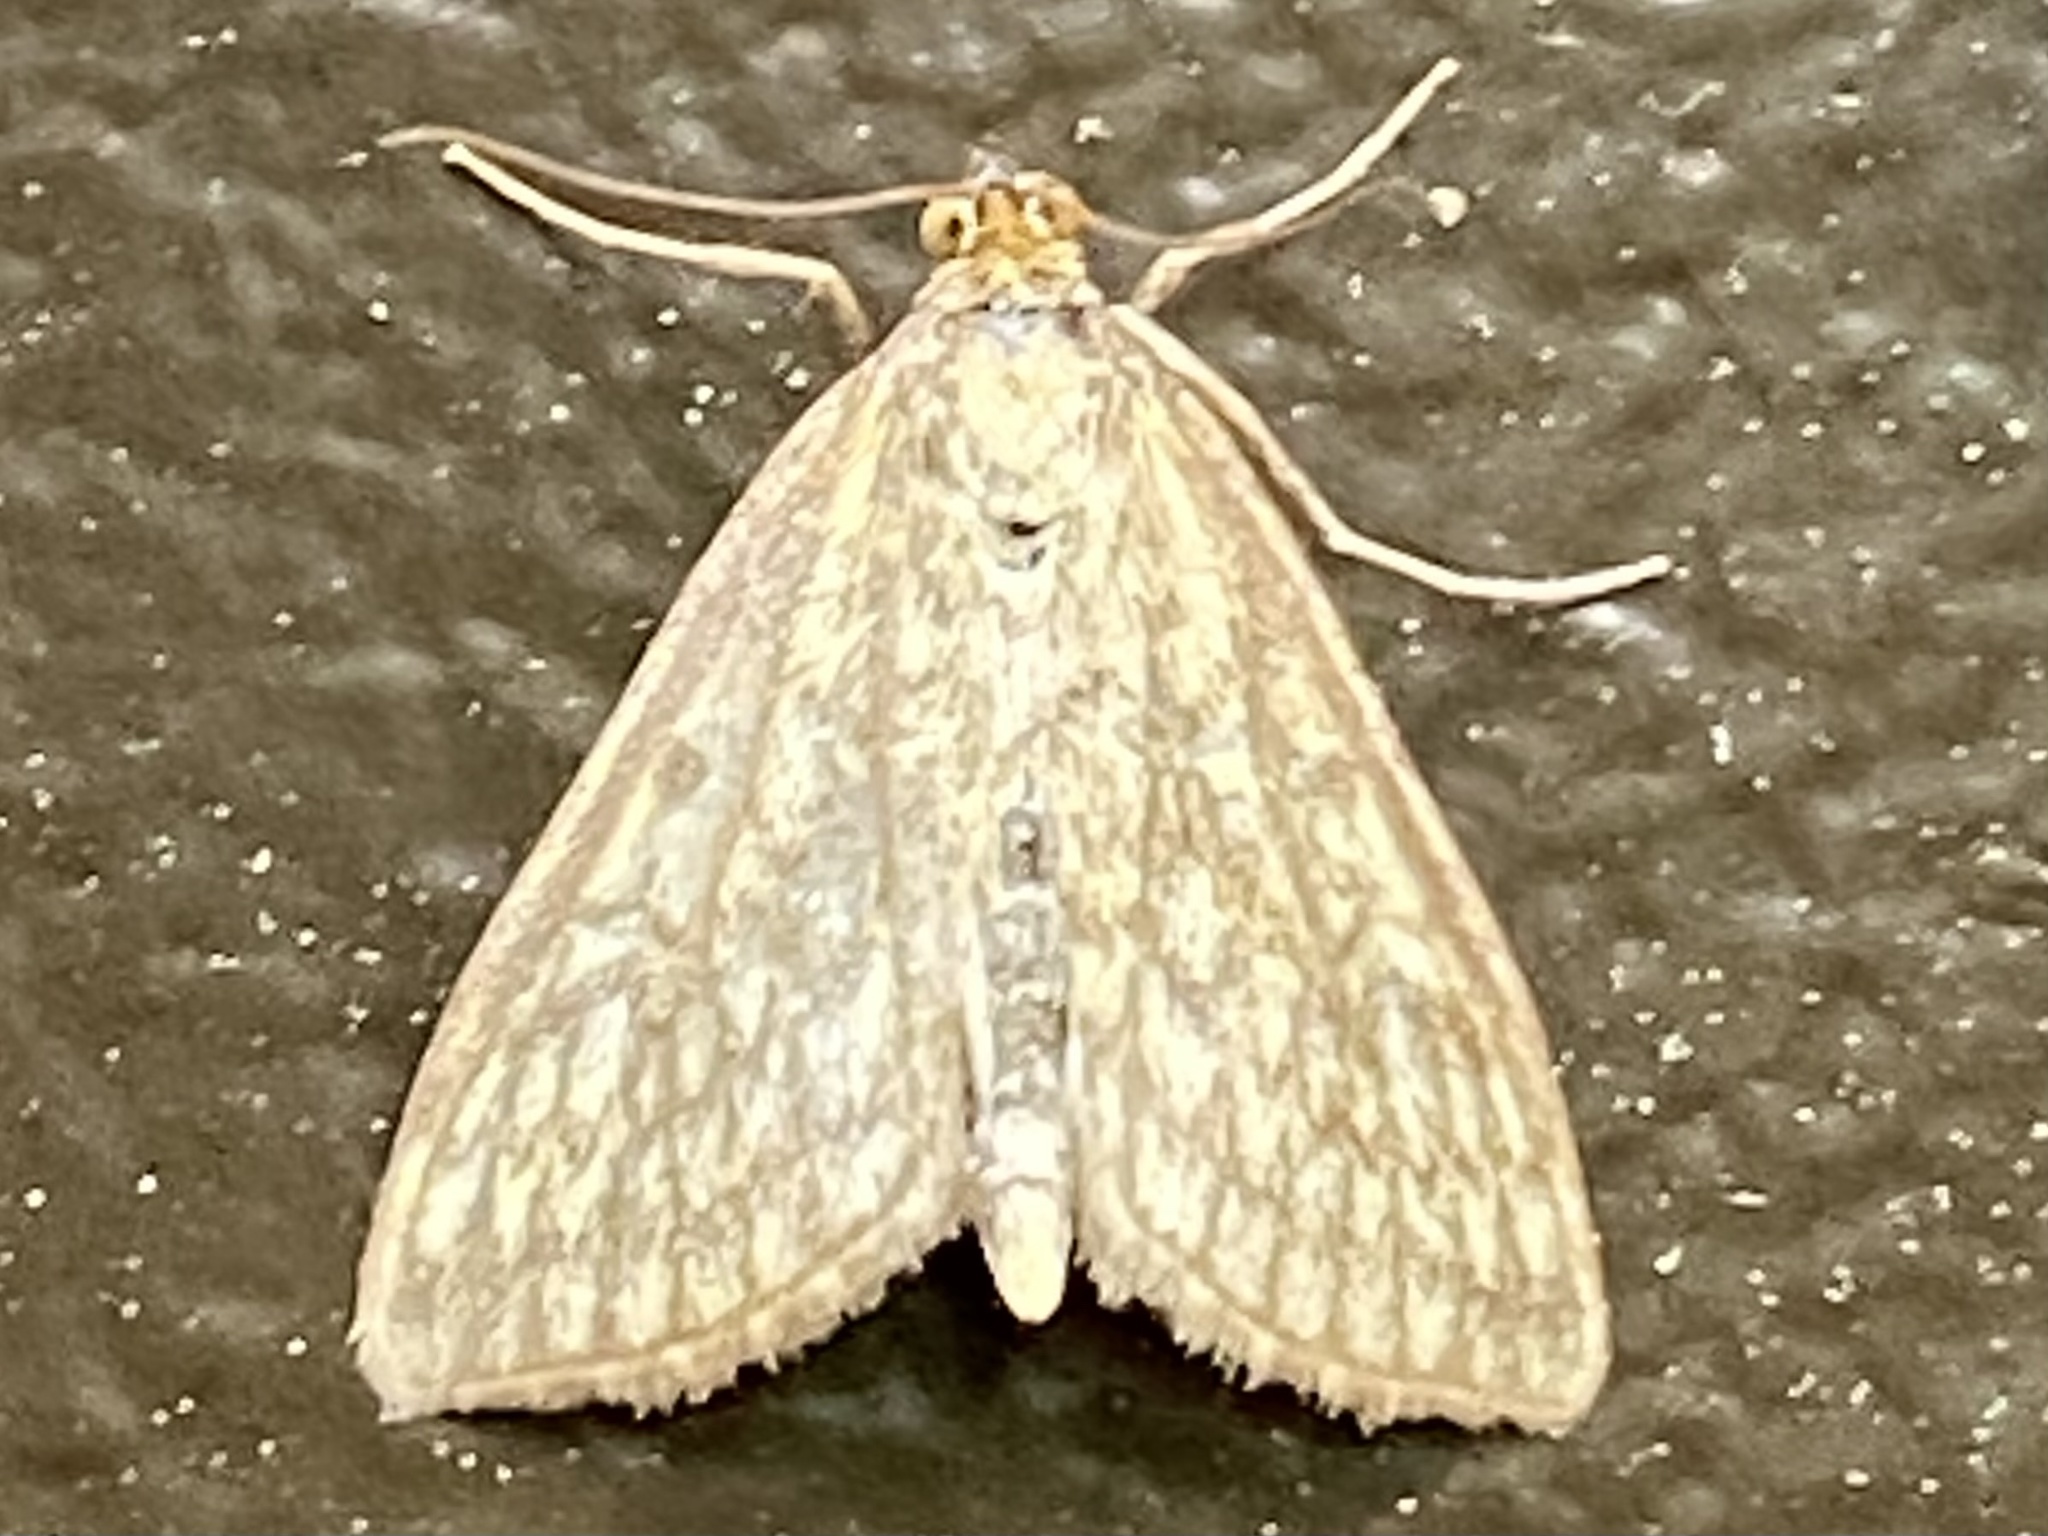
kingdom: Animalia
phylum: Arthropoda
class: Insecta
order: Lepidoptera
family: Crambidae
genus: Sitochroa
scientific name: Sitochroa chortalis
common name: Dimorphic sitochroa moth
